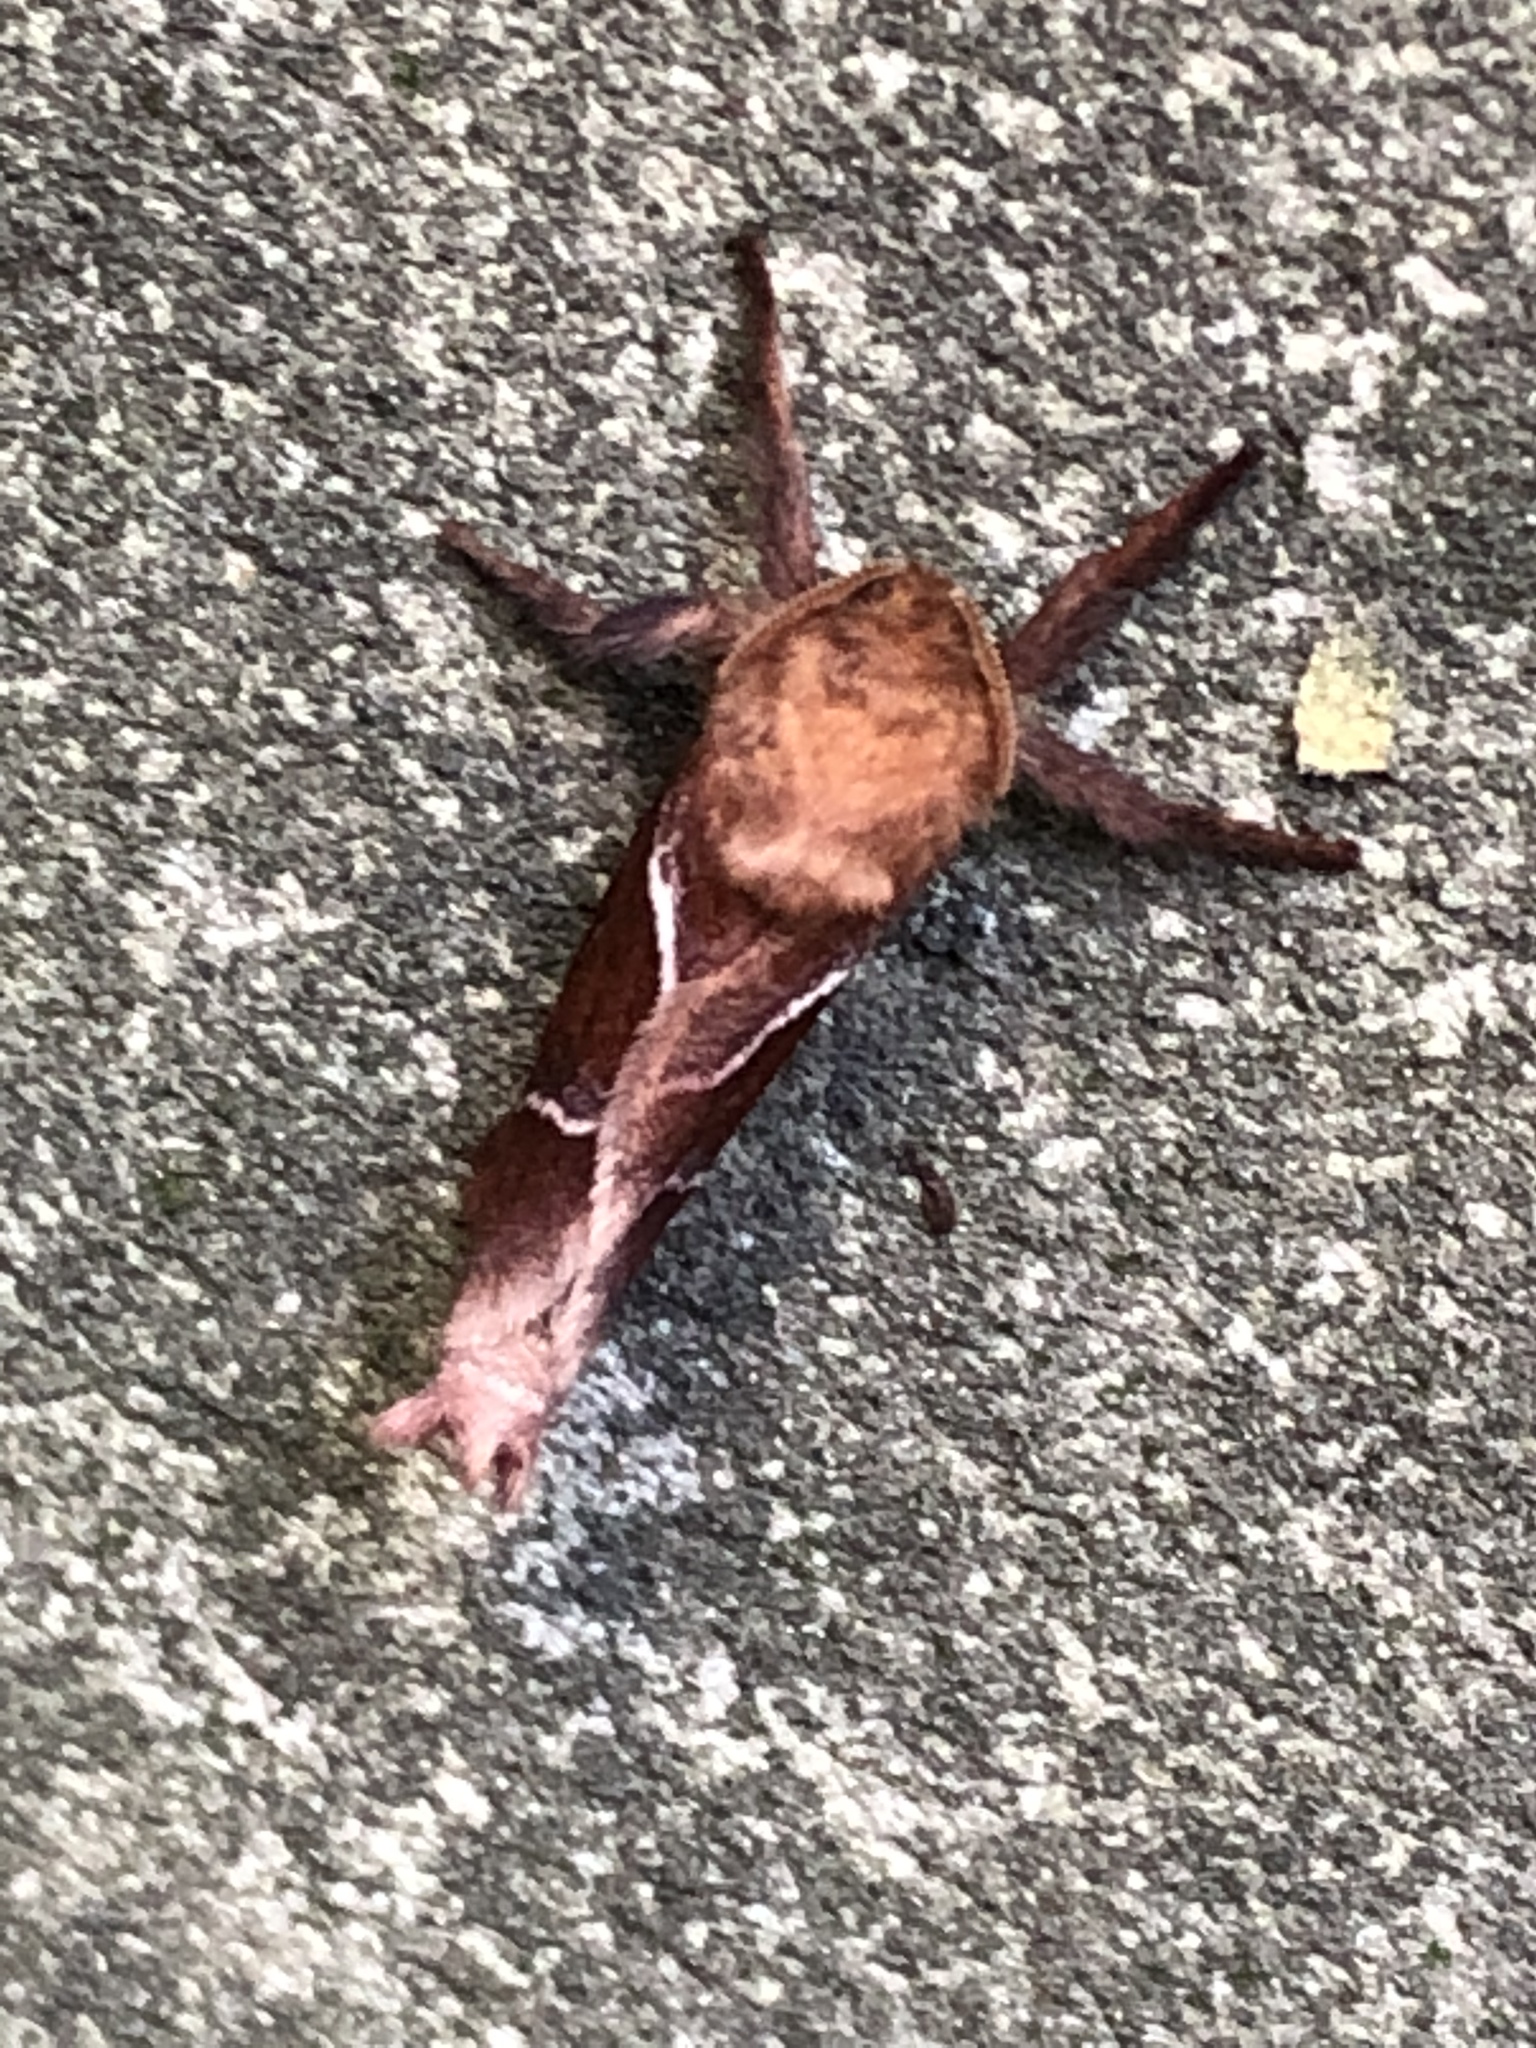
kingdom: Animalia
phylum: Arthropoda
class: Insecta
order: Lepidoptera
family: Hepialidae
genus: Triodia
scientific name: Triodia sylvina
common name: Orange swift
